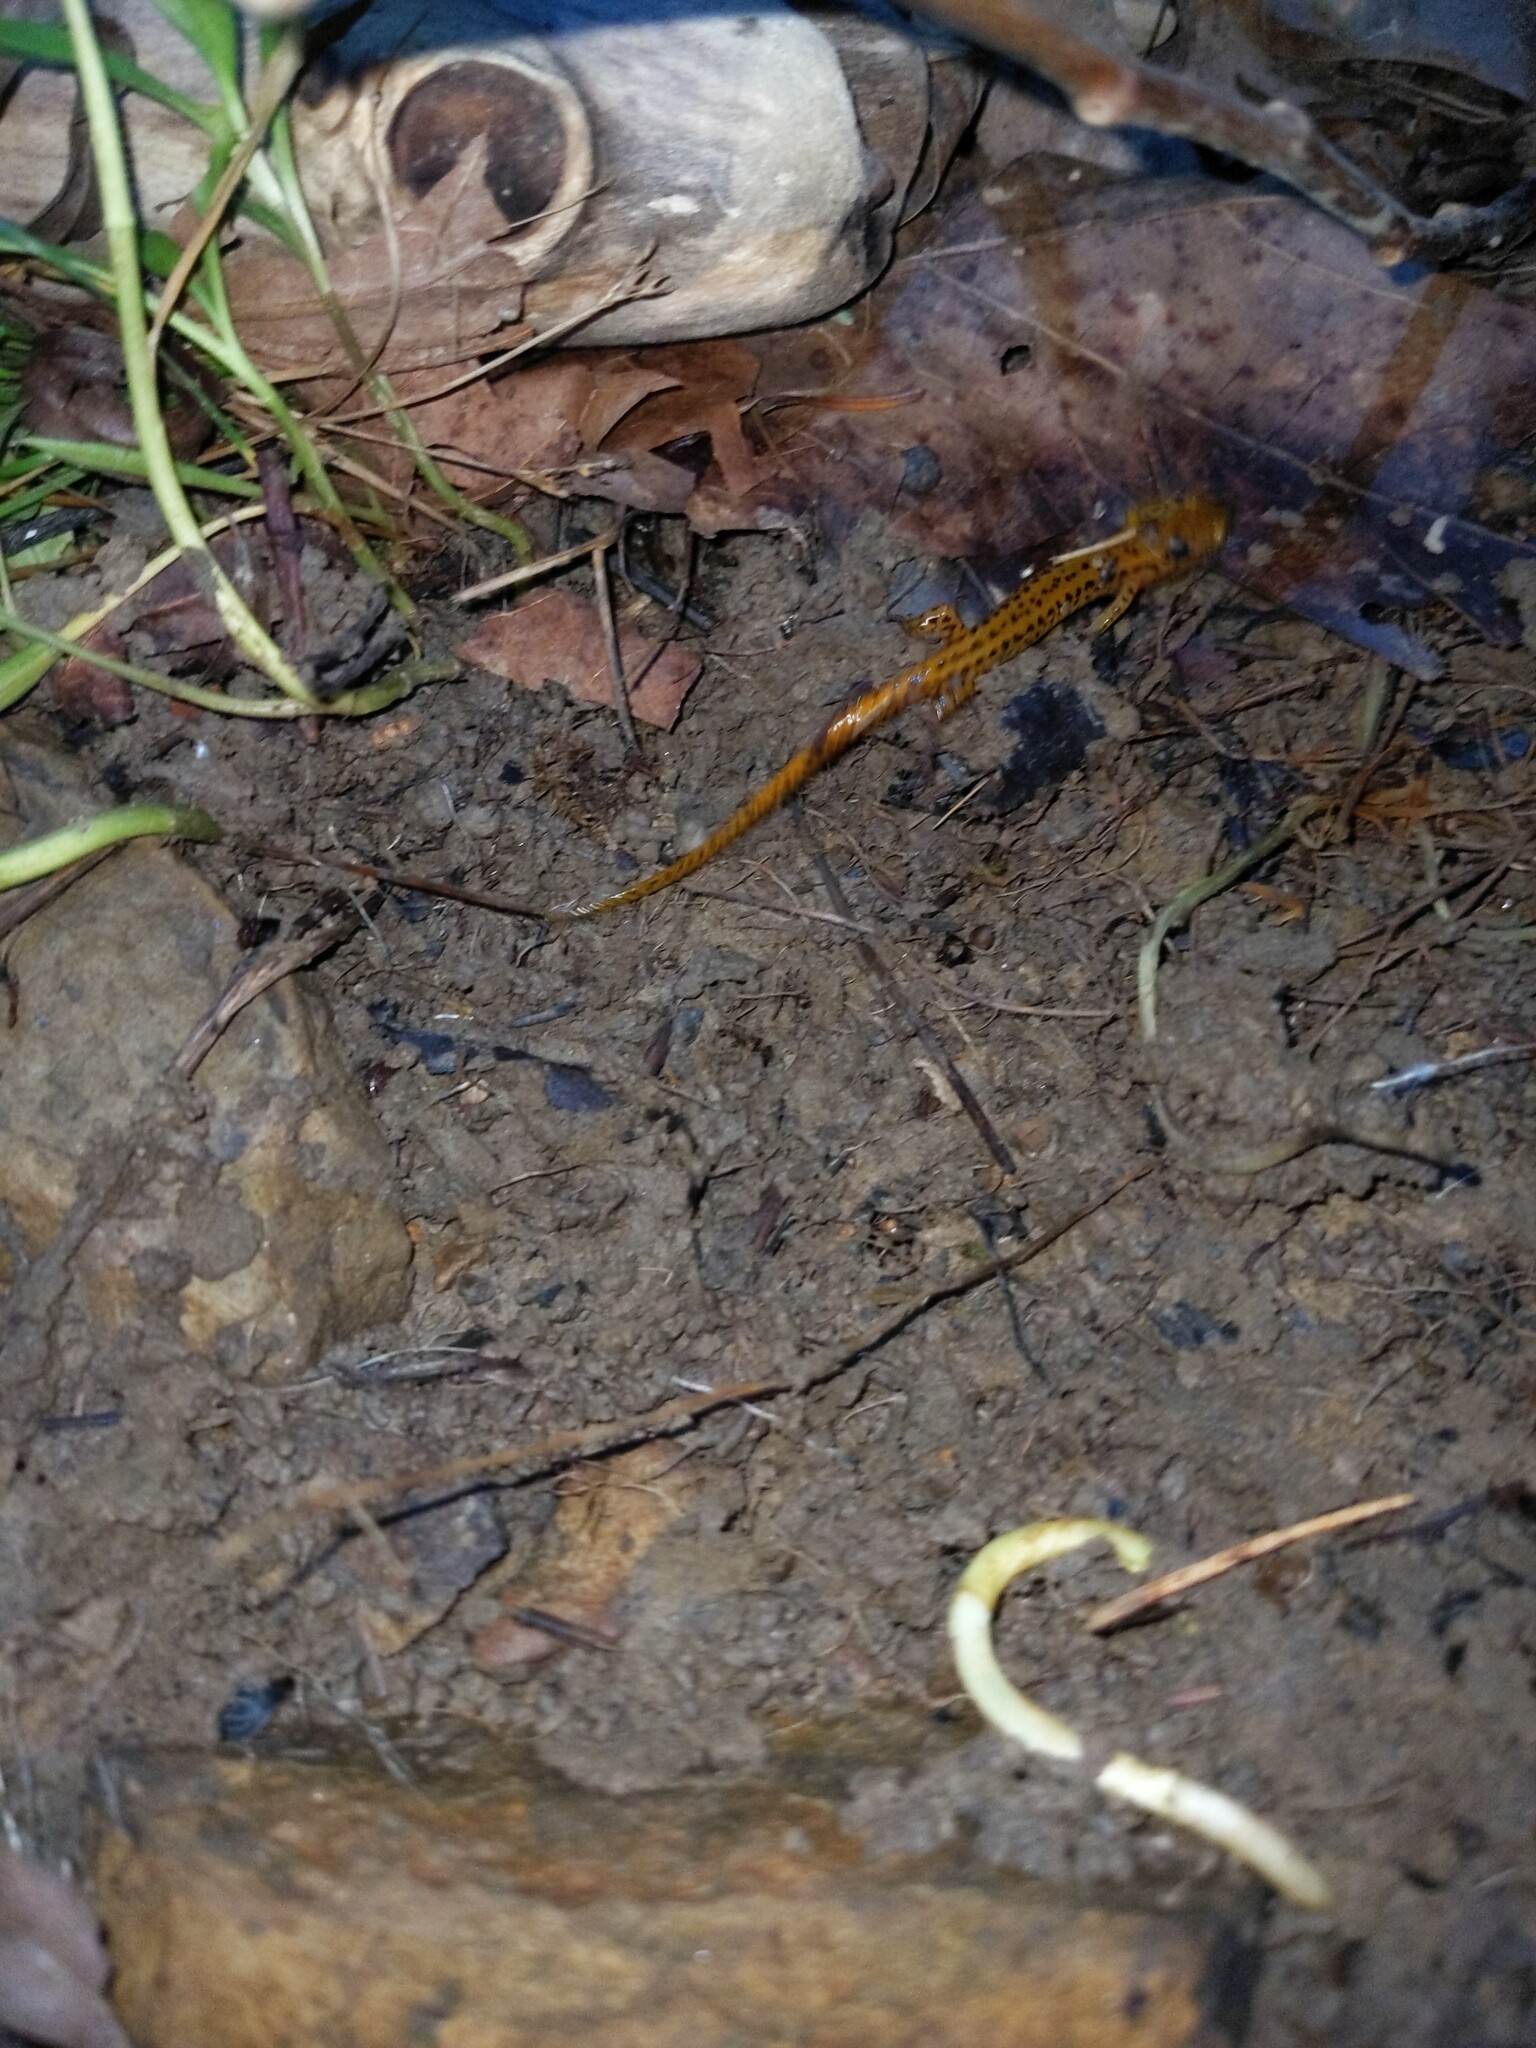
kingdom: Animalia
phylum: Chordata
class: Amphibia
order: Caudata
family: Plethodontidae
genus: Eurycea
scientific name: Eurycea longicauda
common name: Long-tailed salamander
